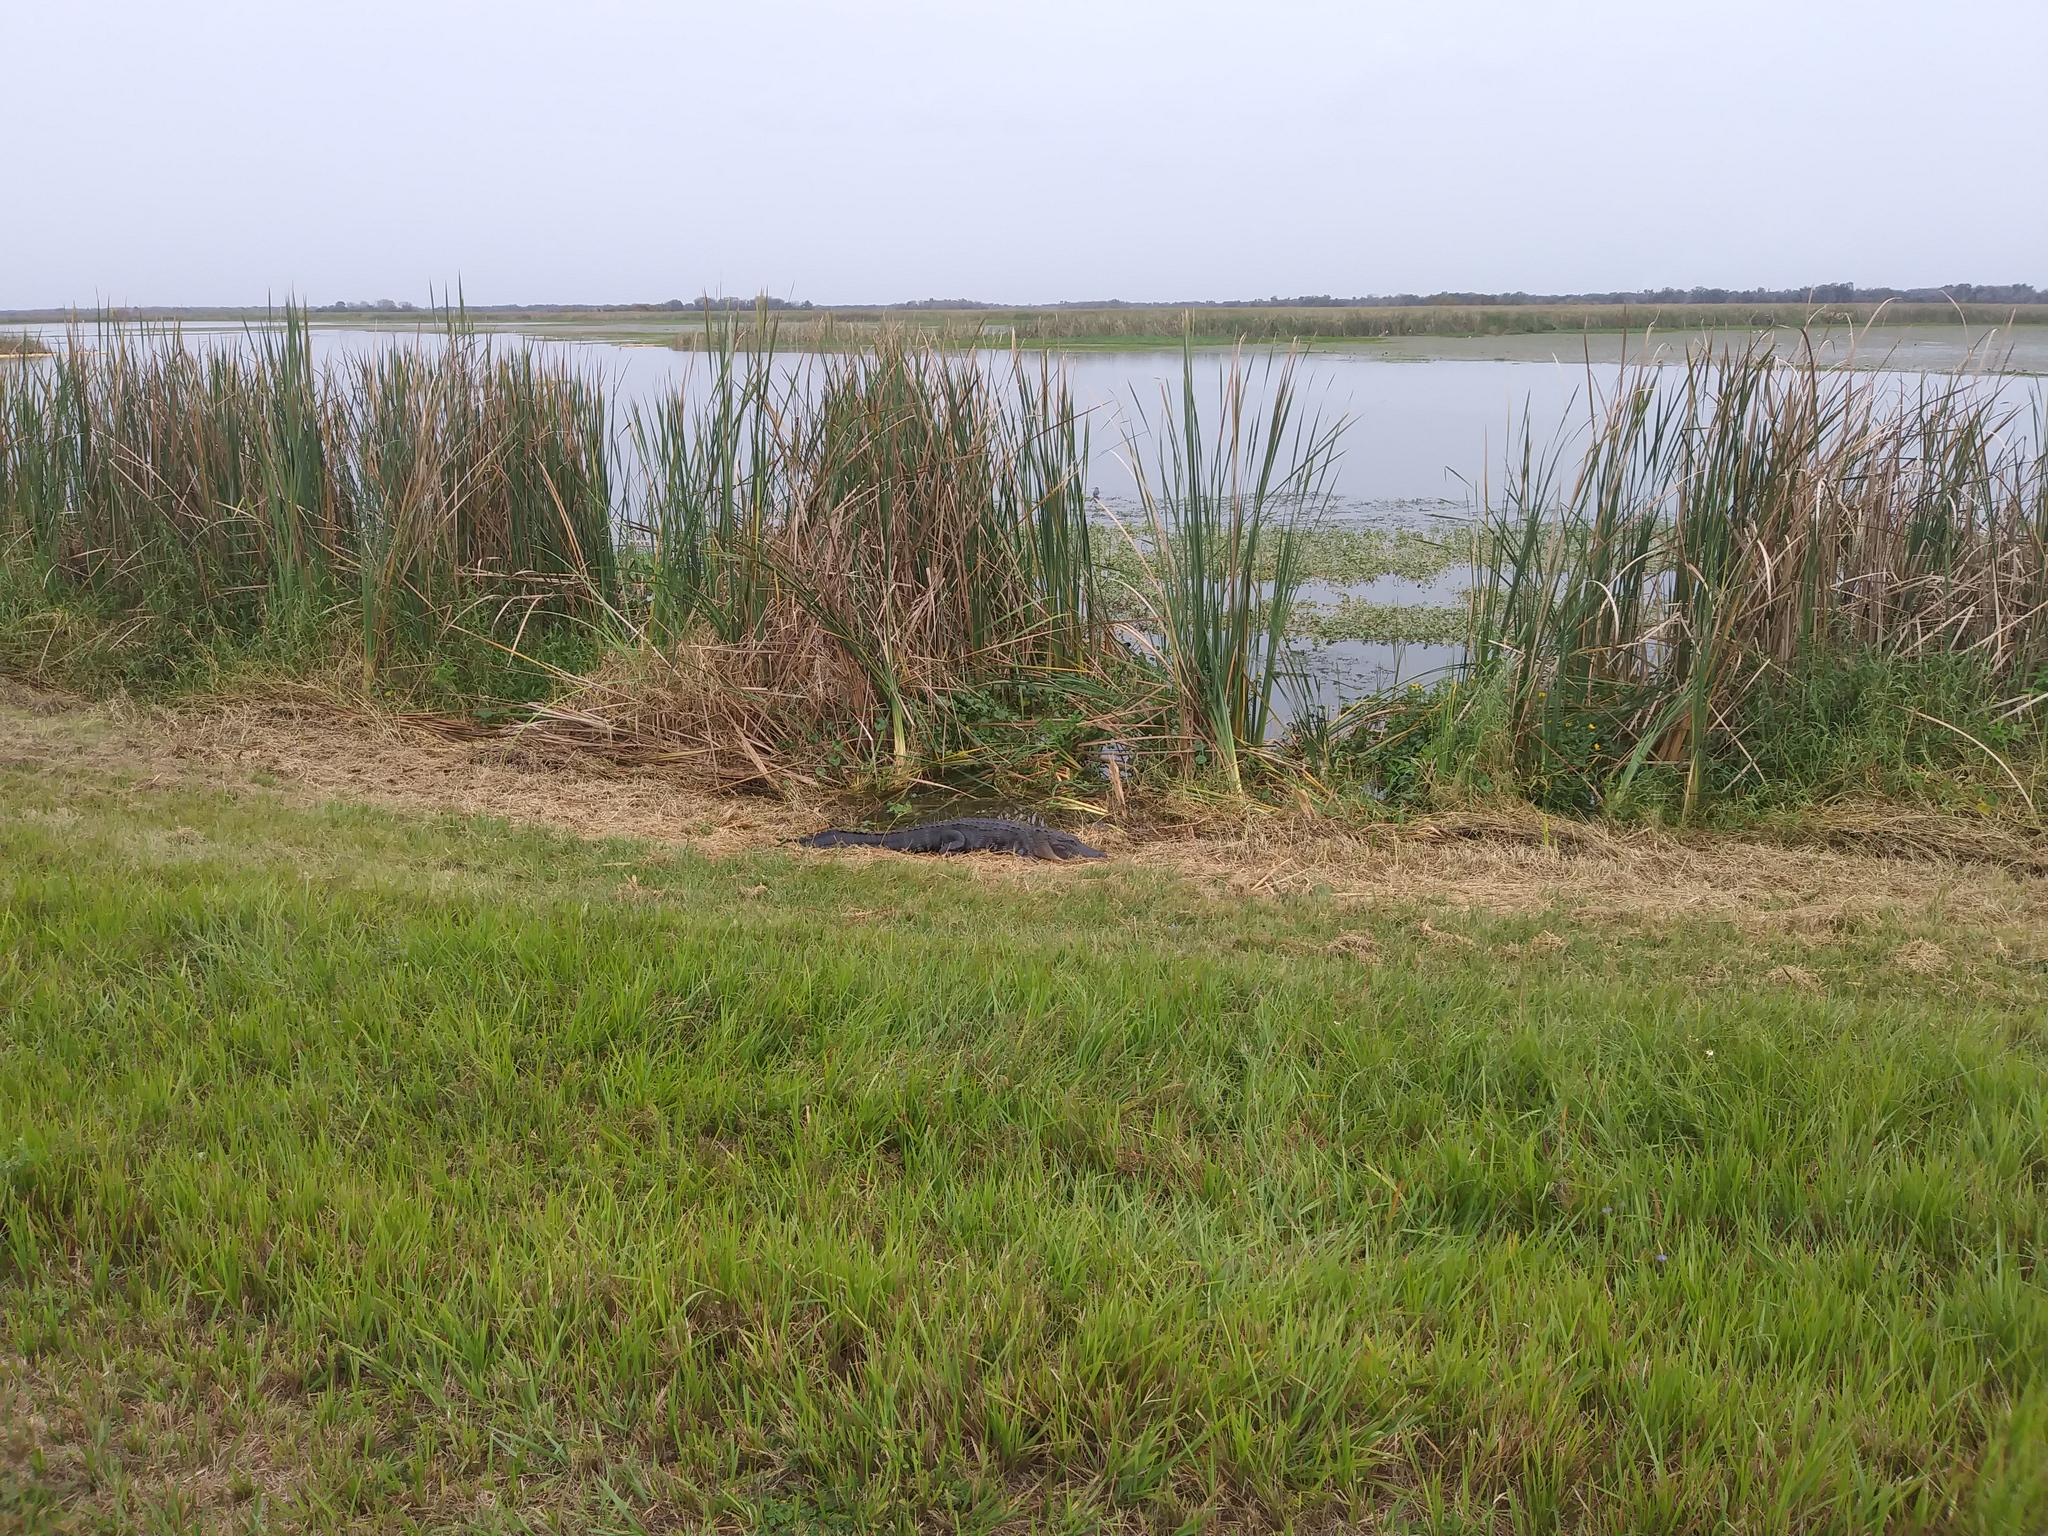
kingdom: Animalia
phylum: Chordata
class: Crocodylia
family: Alligatoridae
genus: Alligator
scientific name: Alligator mississippiensis
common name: American alligator
